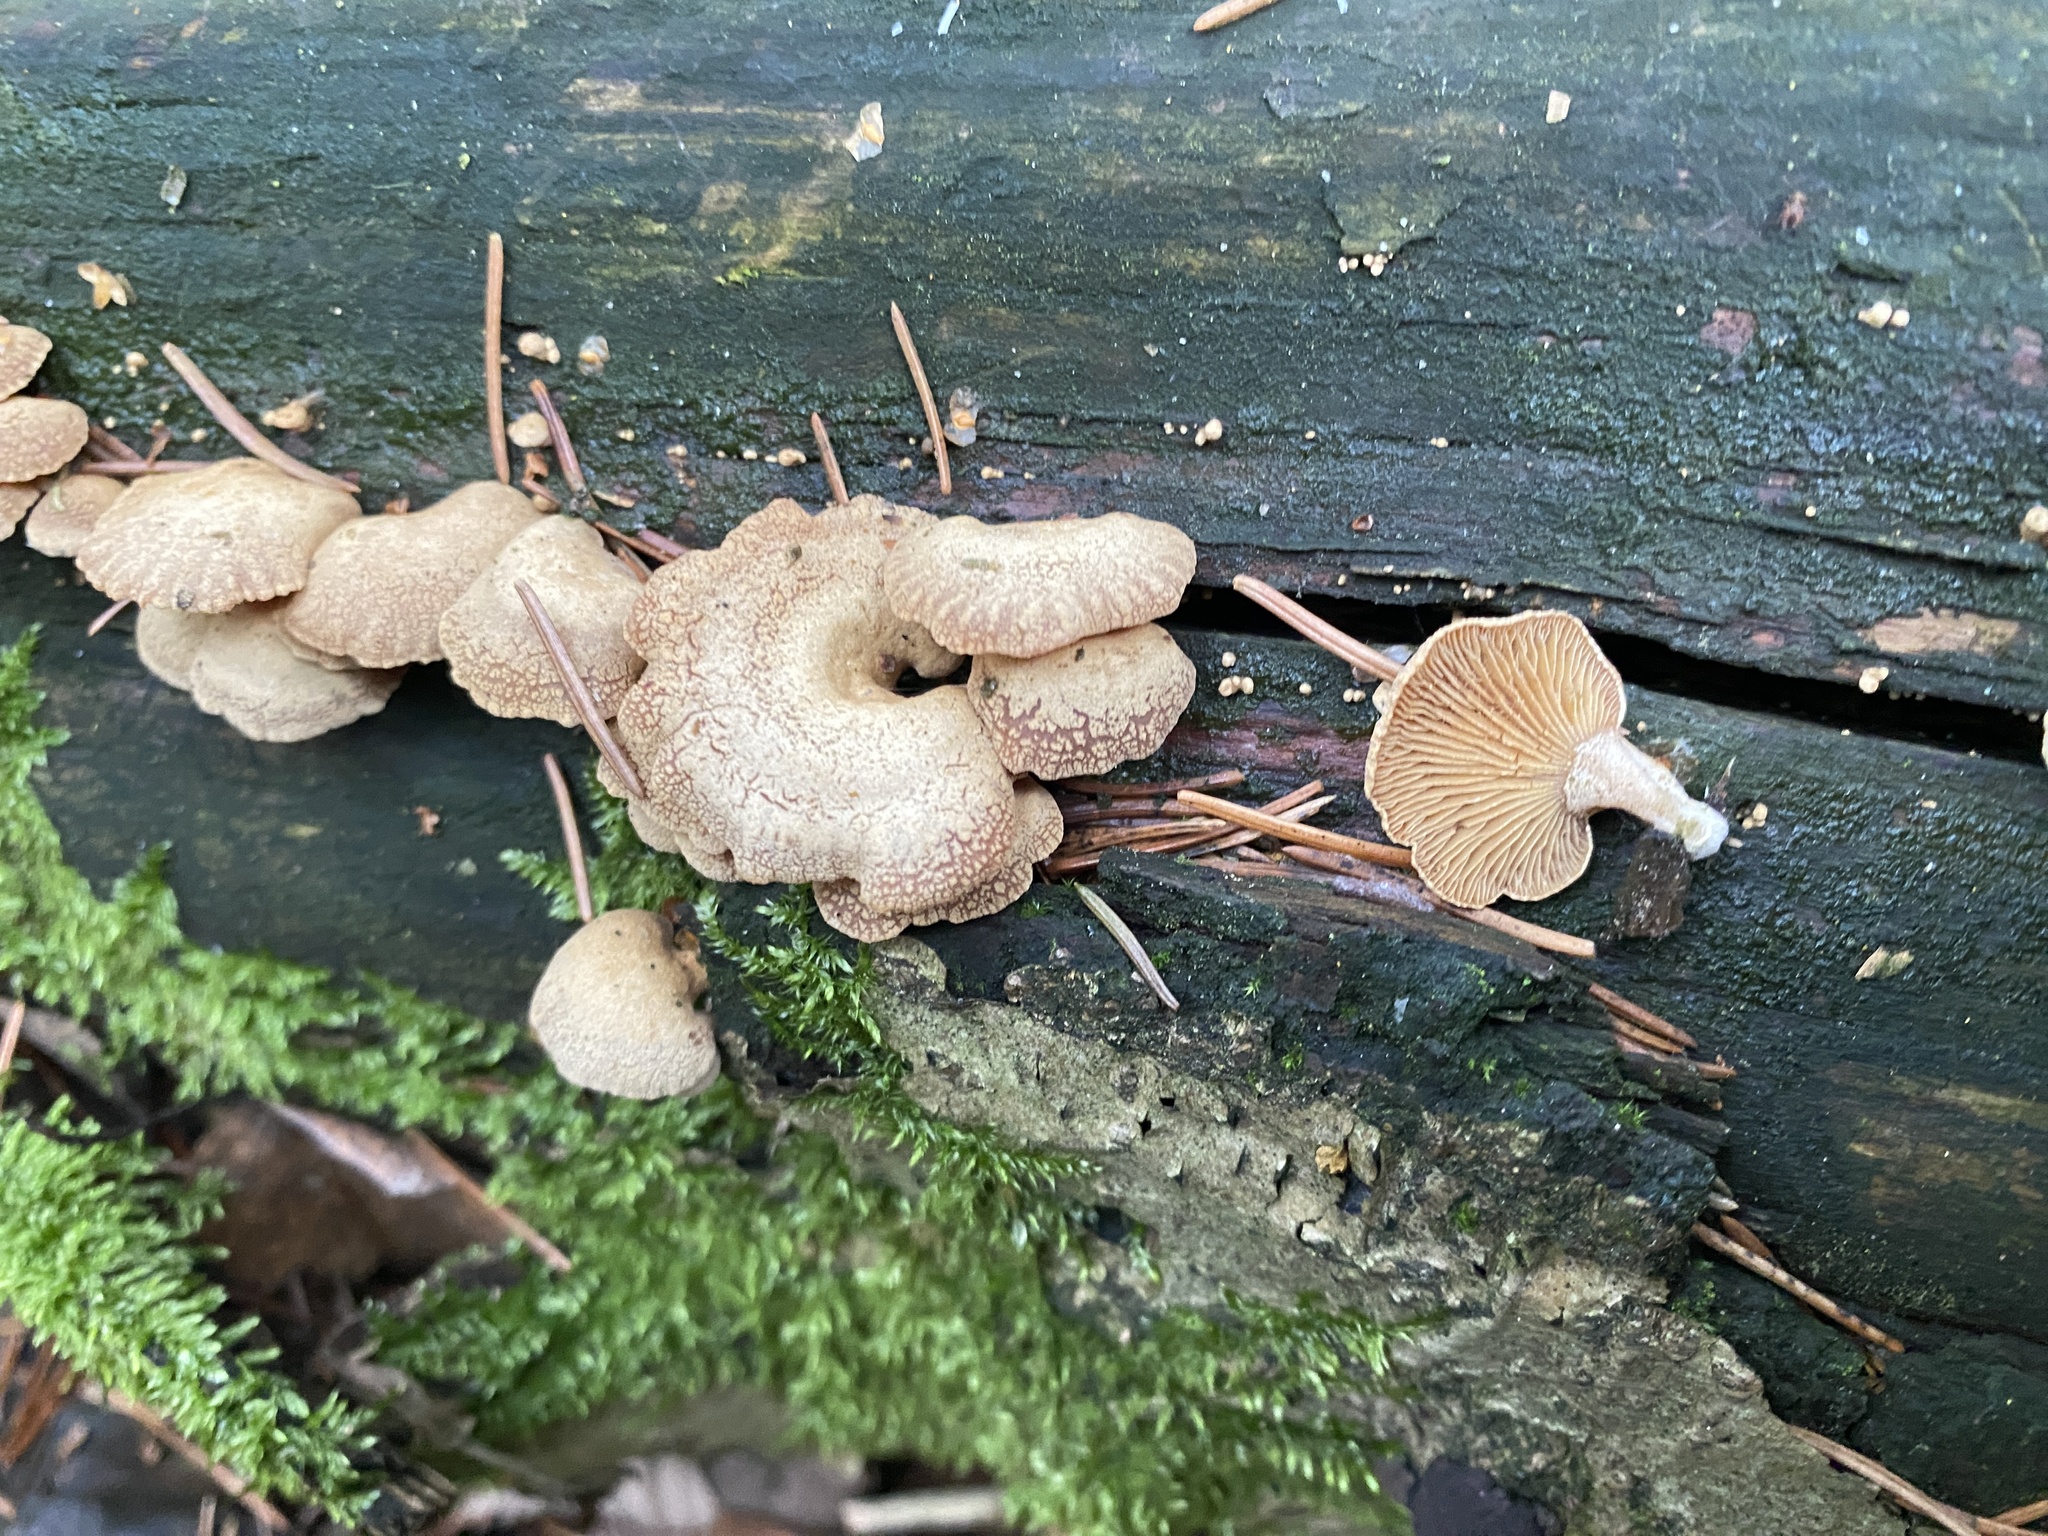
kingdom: Fungi
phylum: Basidiomycota
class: Agaricomycetes
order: Agaricales
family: Mycenaceae
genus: Panellus
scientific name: Panellus stipticus
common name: Bitter oysterling
